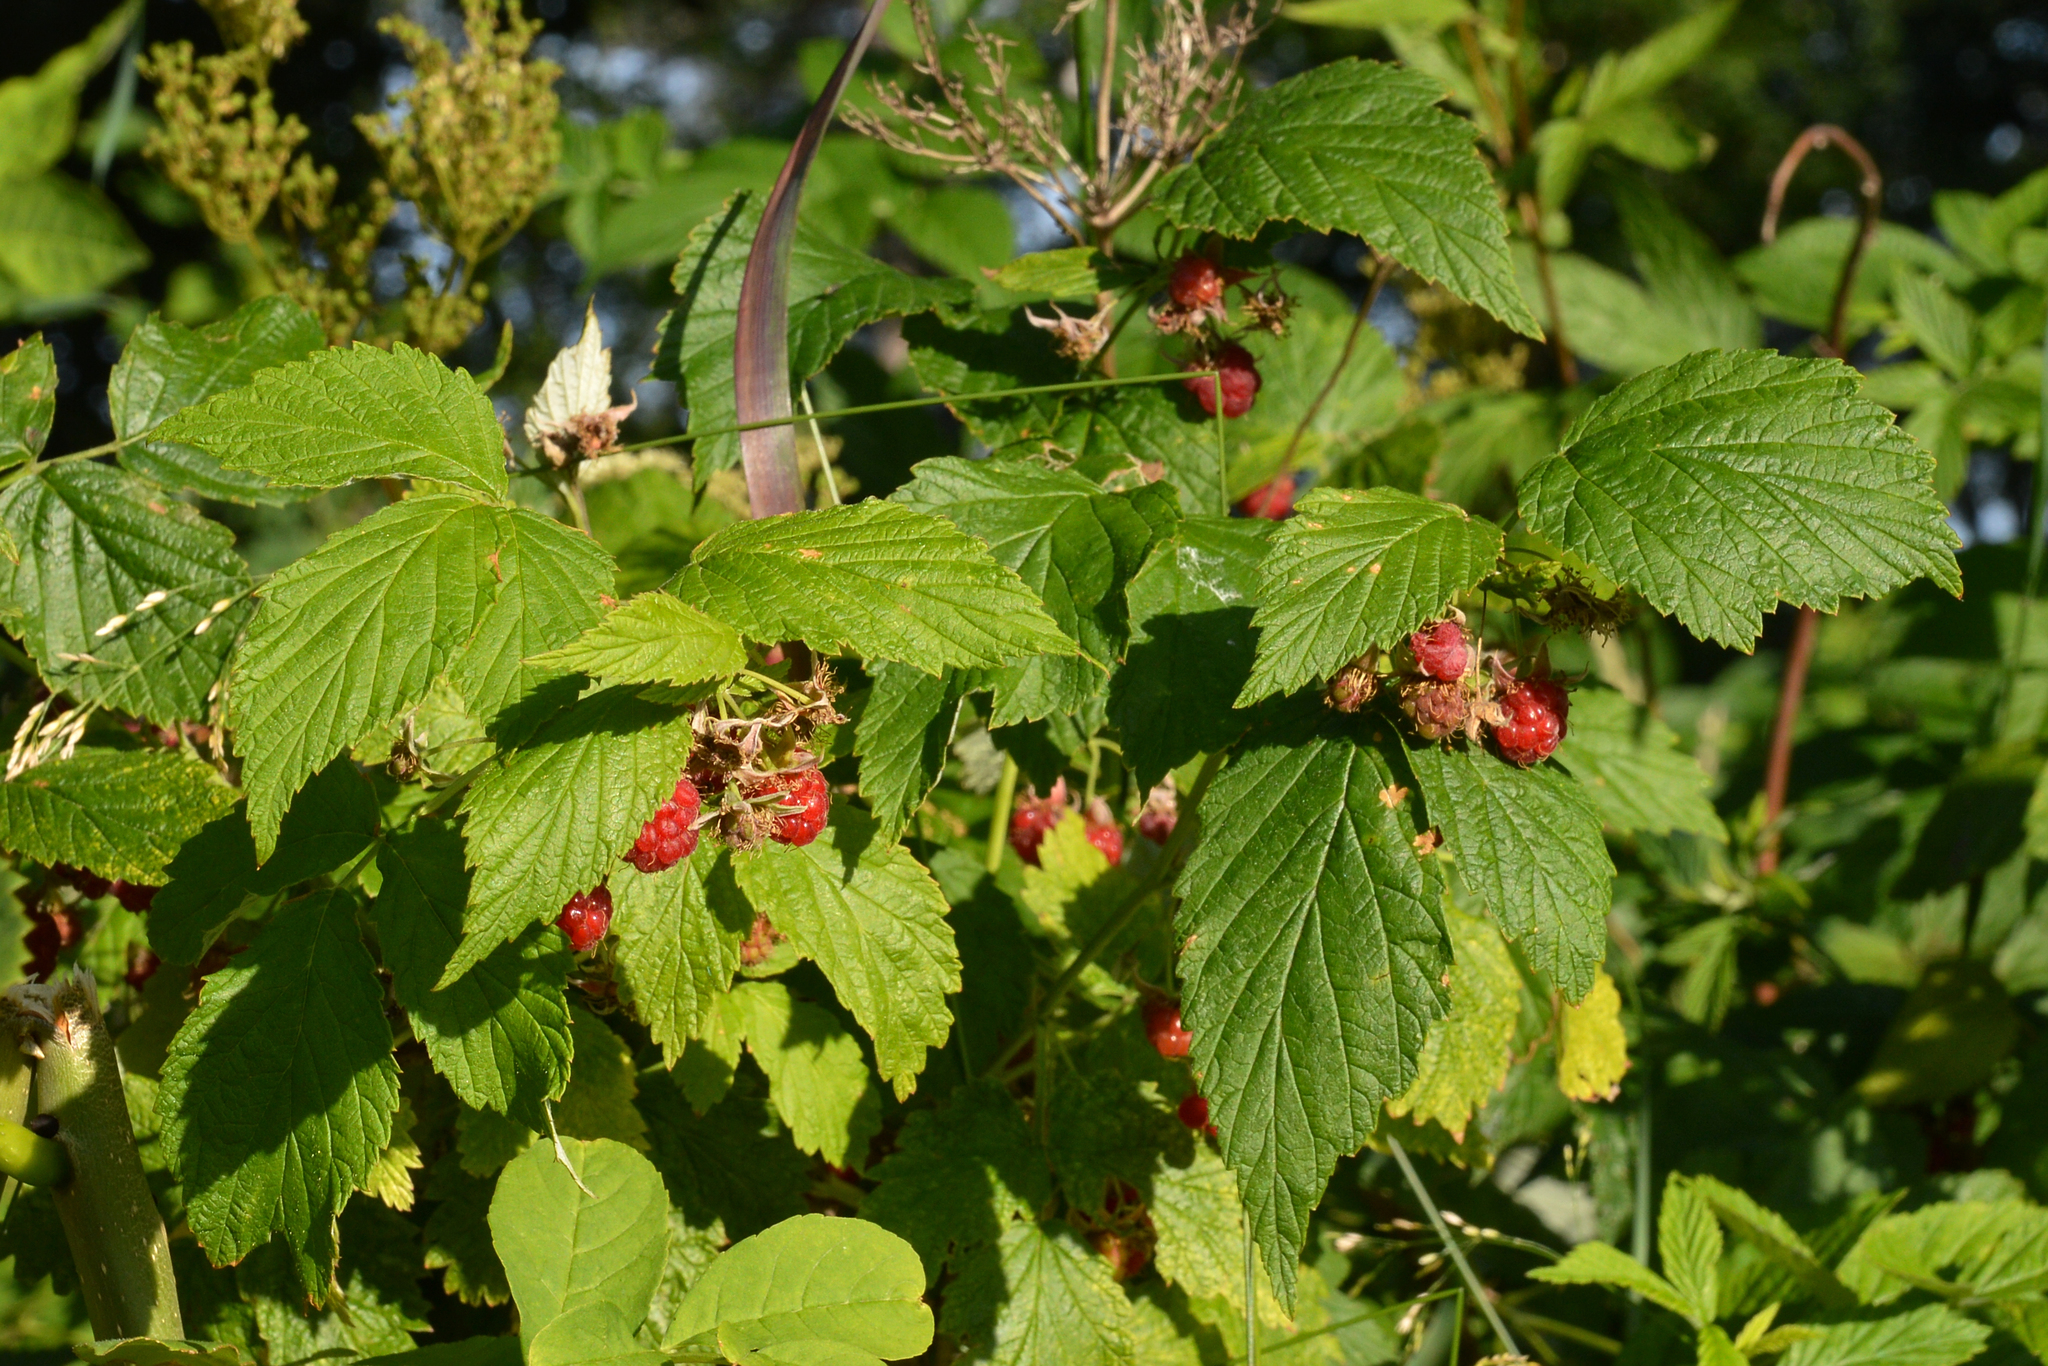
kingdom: Plantae
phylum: Tracheophyta
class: Magnoliopsida
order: Rosales
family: Rosaceae
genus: Rubus
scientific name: Rubus idaeus
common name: Raspberry
